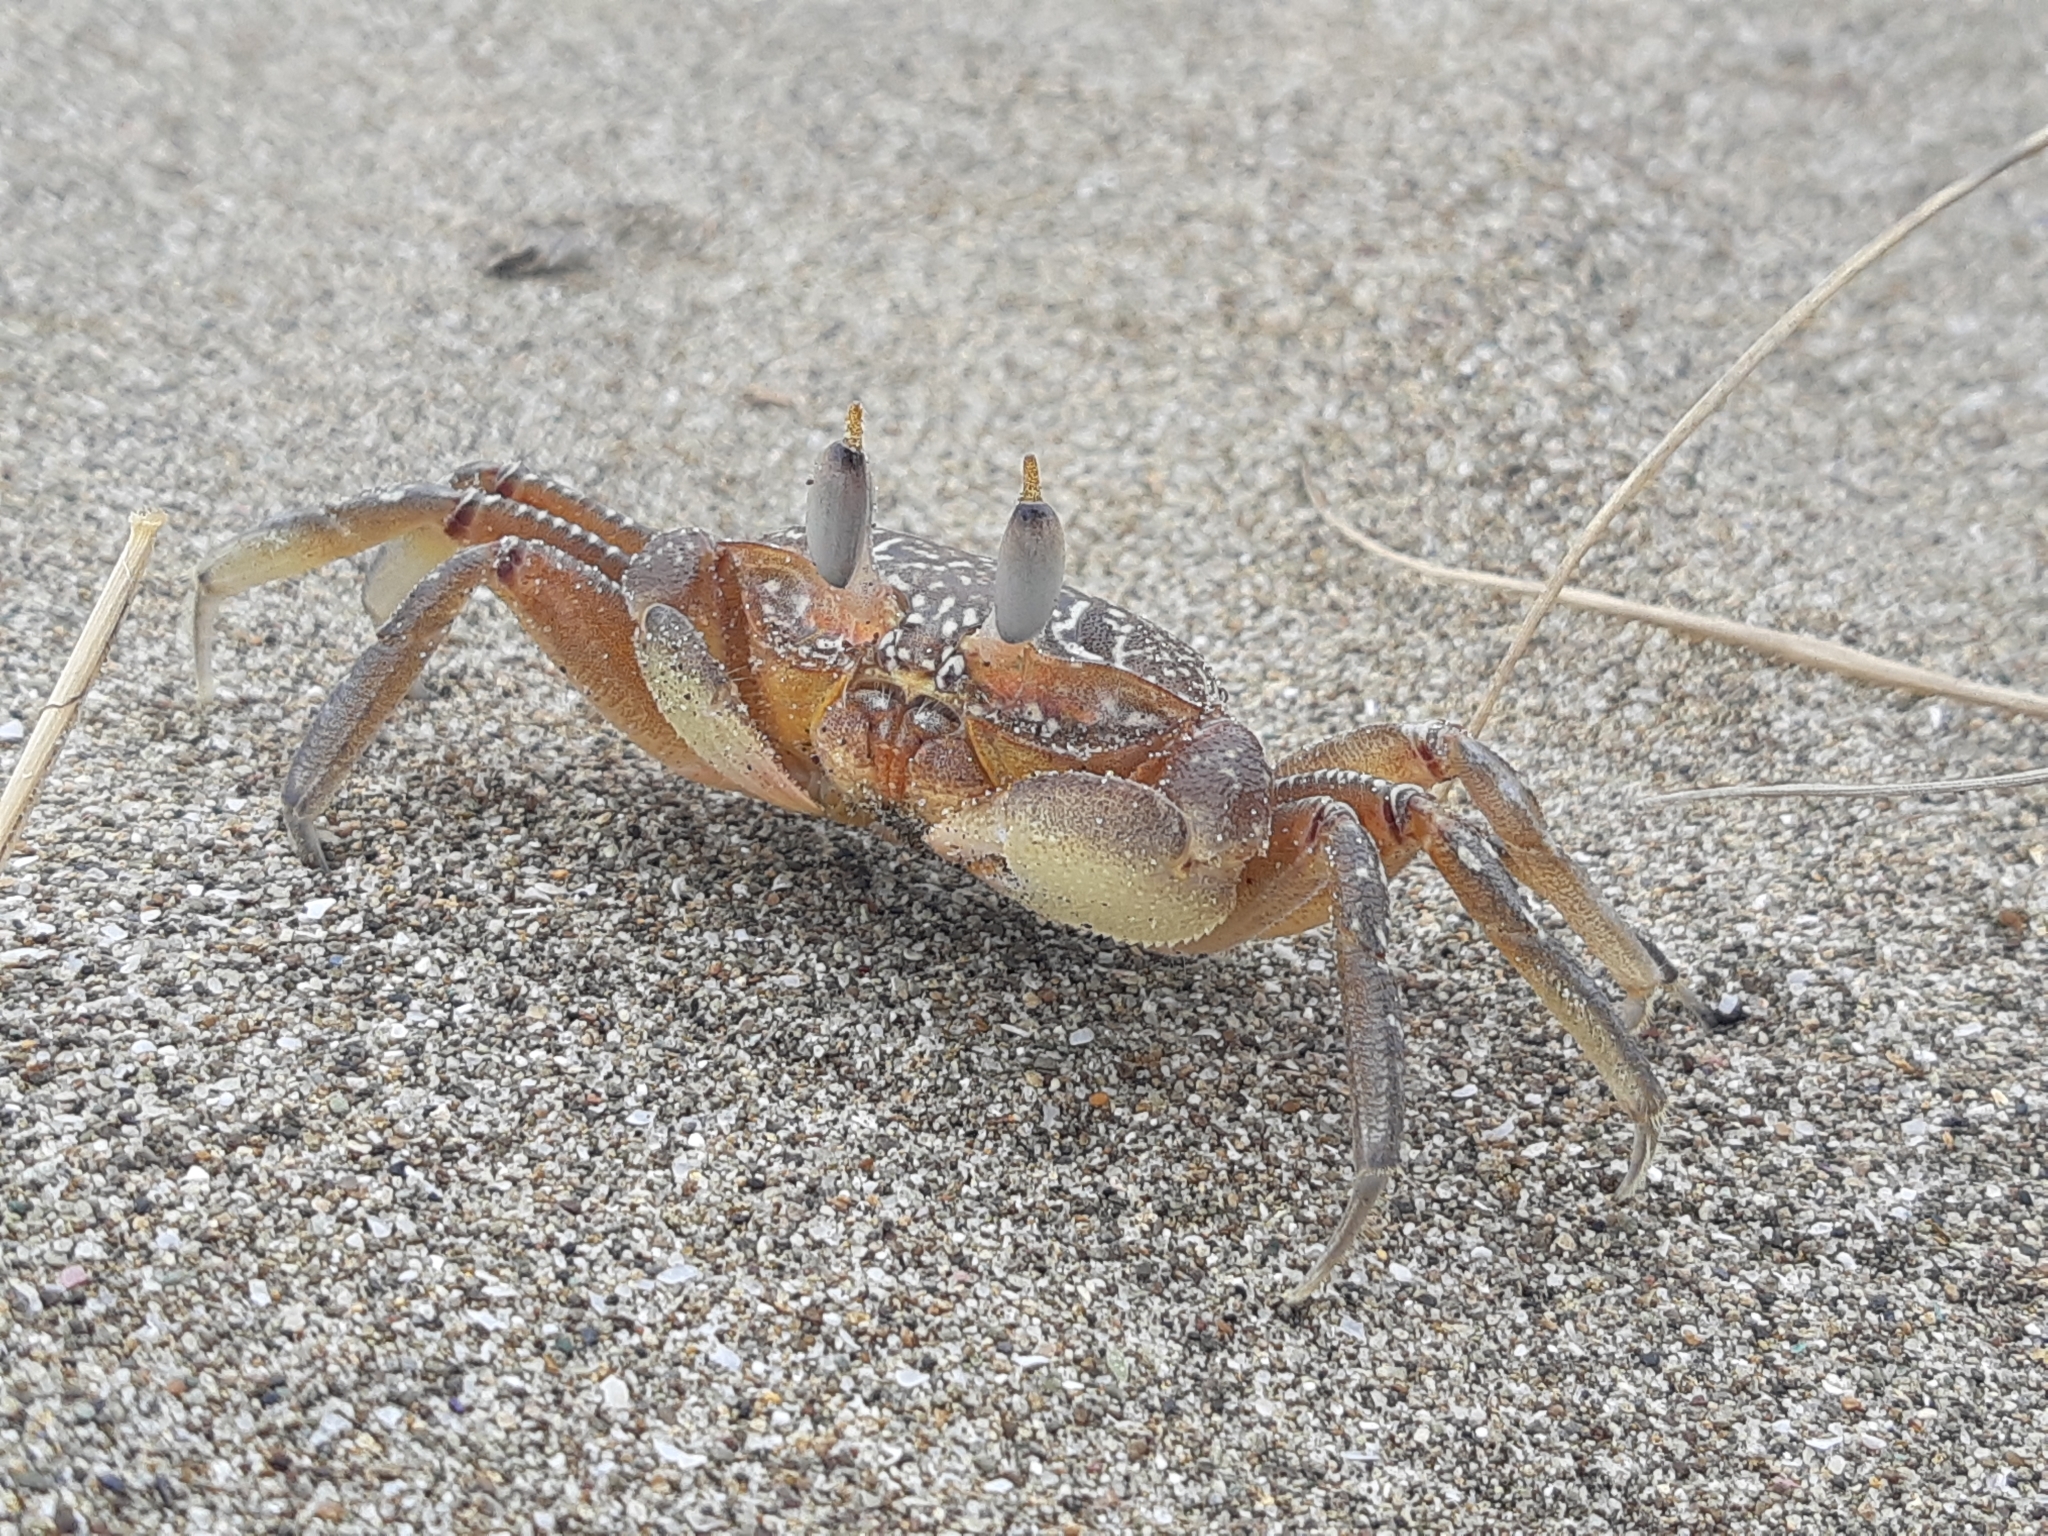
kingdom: Animalia
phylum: Arthropoda
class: Malacostraca
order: Decapoda
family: Ocypodidae
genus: Ocypode
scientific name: Ocypode gaudichaudii
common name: Pacific ghost crab
